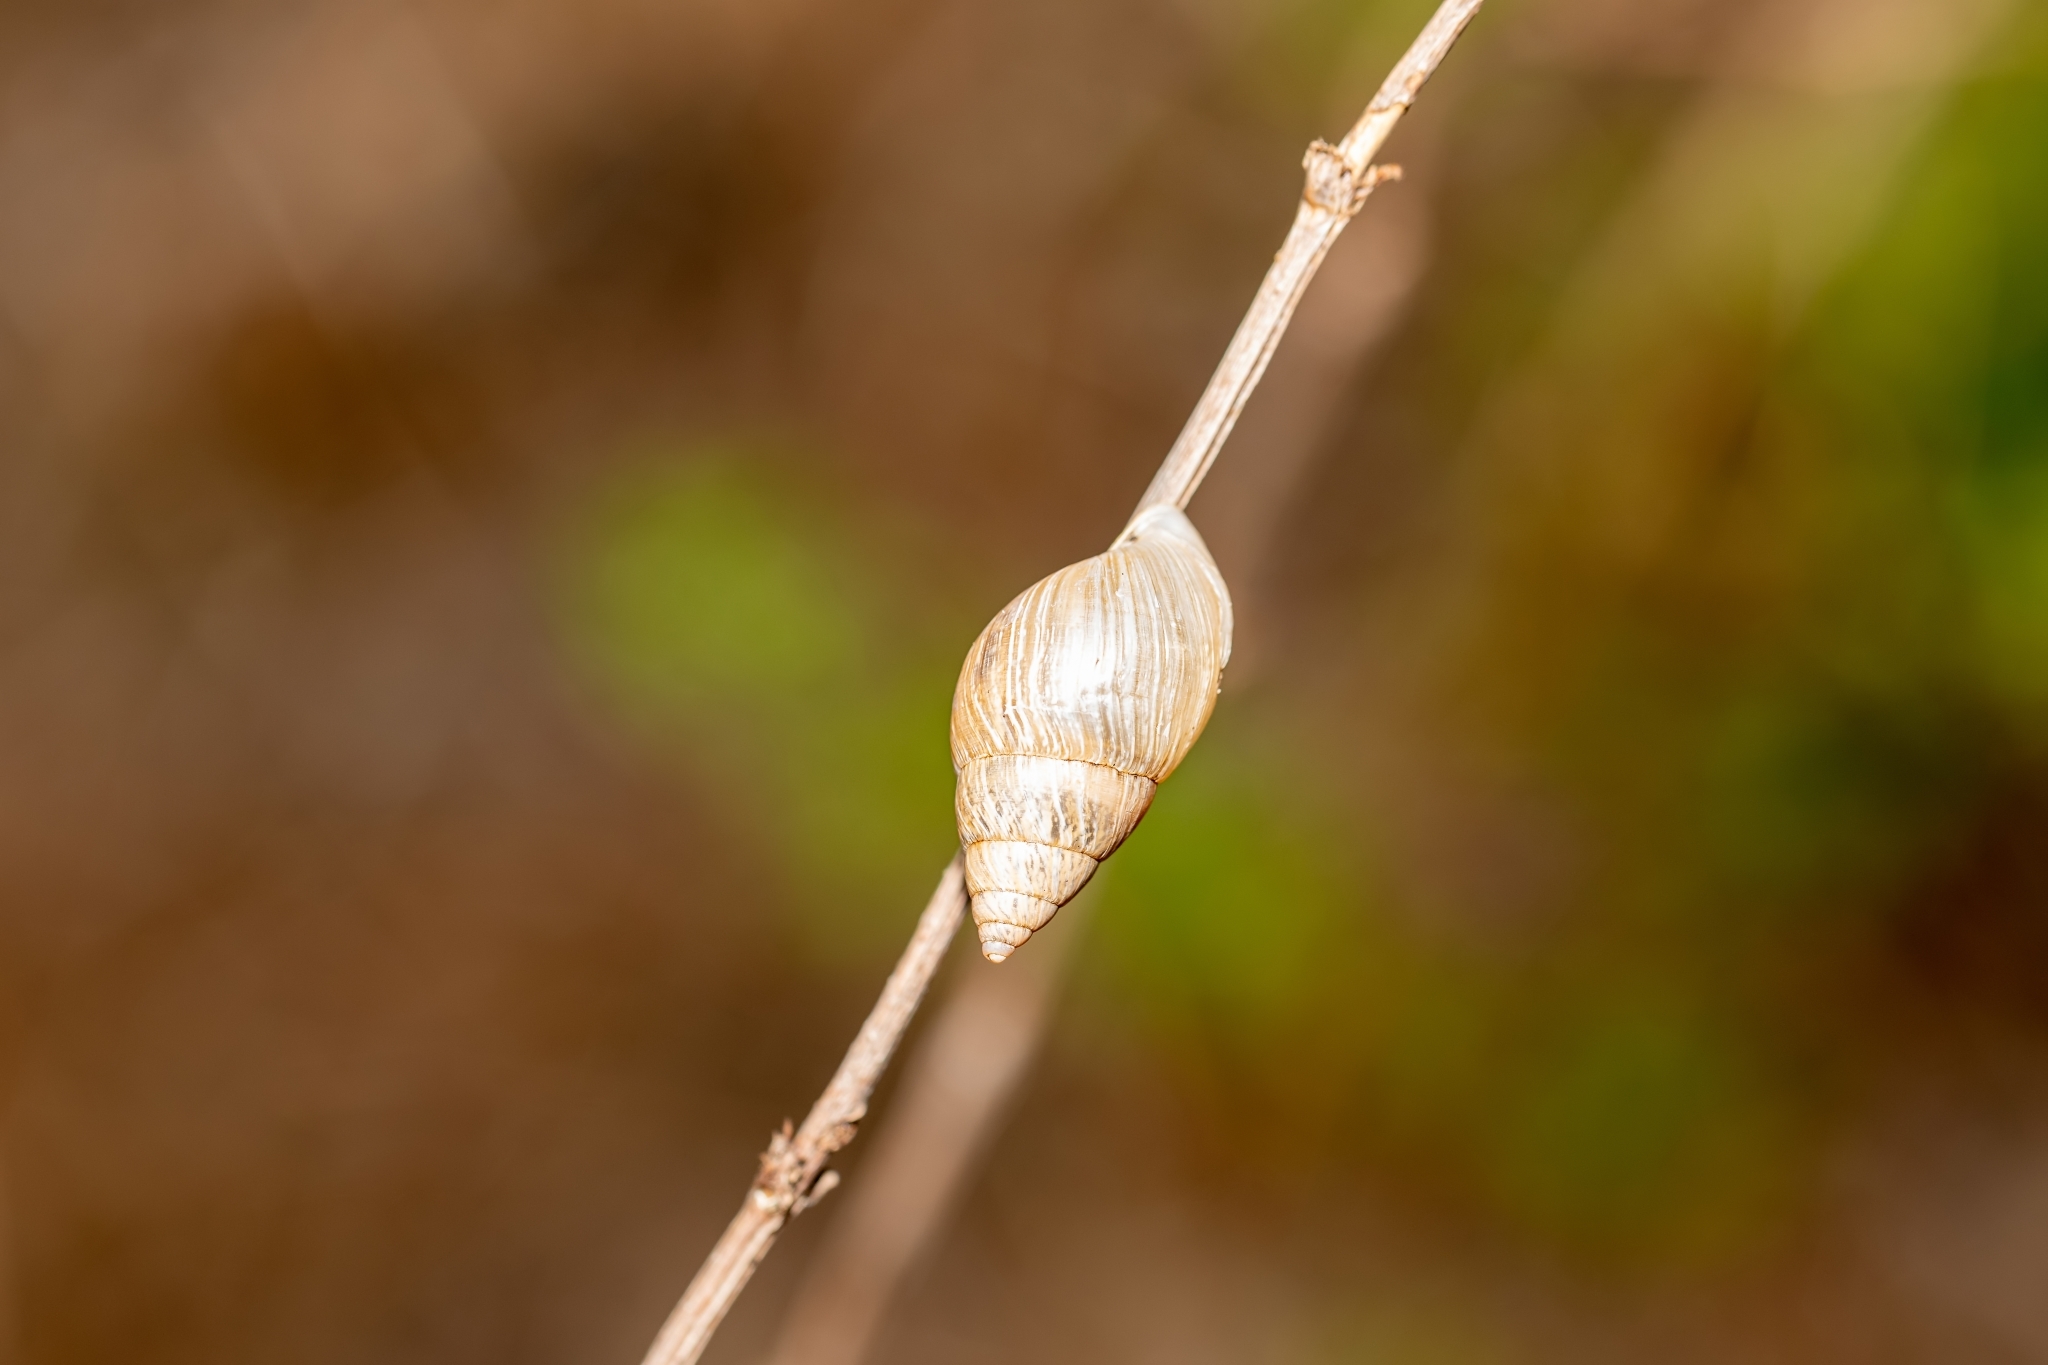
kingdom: Animalia
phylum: Mollusca
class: Gastropoda
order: Stylommatophora
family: Bulimulidae
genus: Bulimulus
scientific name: Bulimulus bonariensis
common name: Snail
